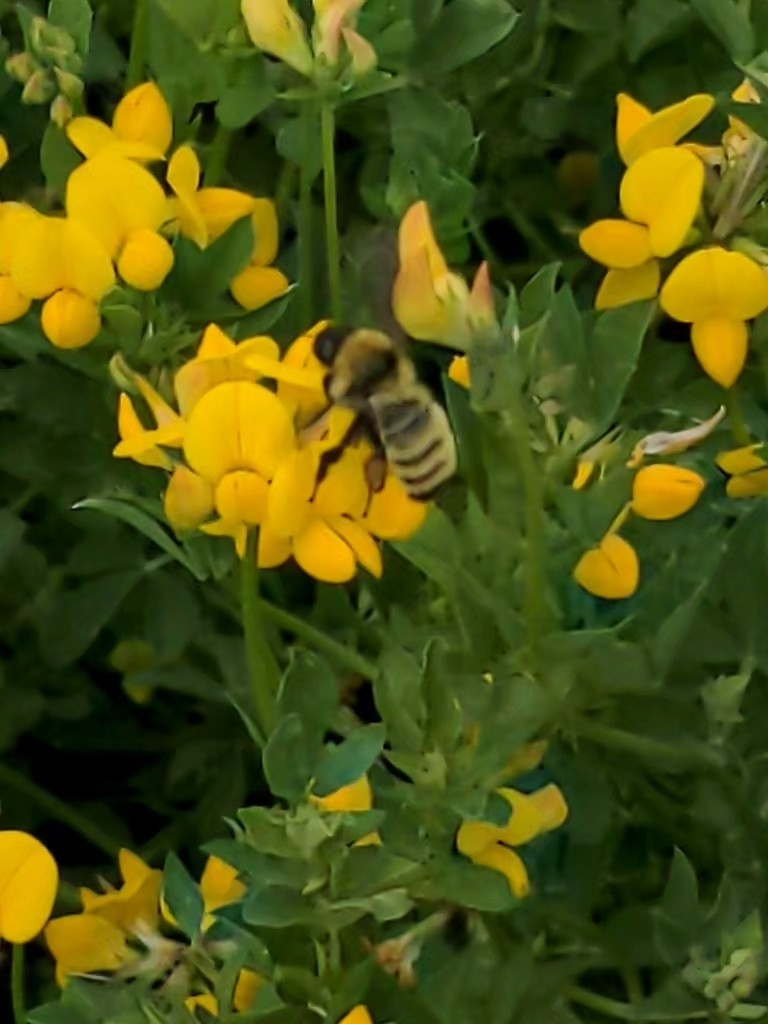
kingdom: Animalia
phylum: Arthropoda
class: Insecta
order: Hymenoptera
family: Apidae
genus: Bombus
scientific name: Bombus fervidus
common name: Yellow bumble bee
